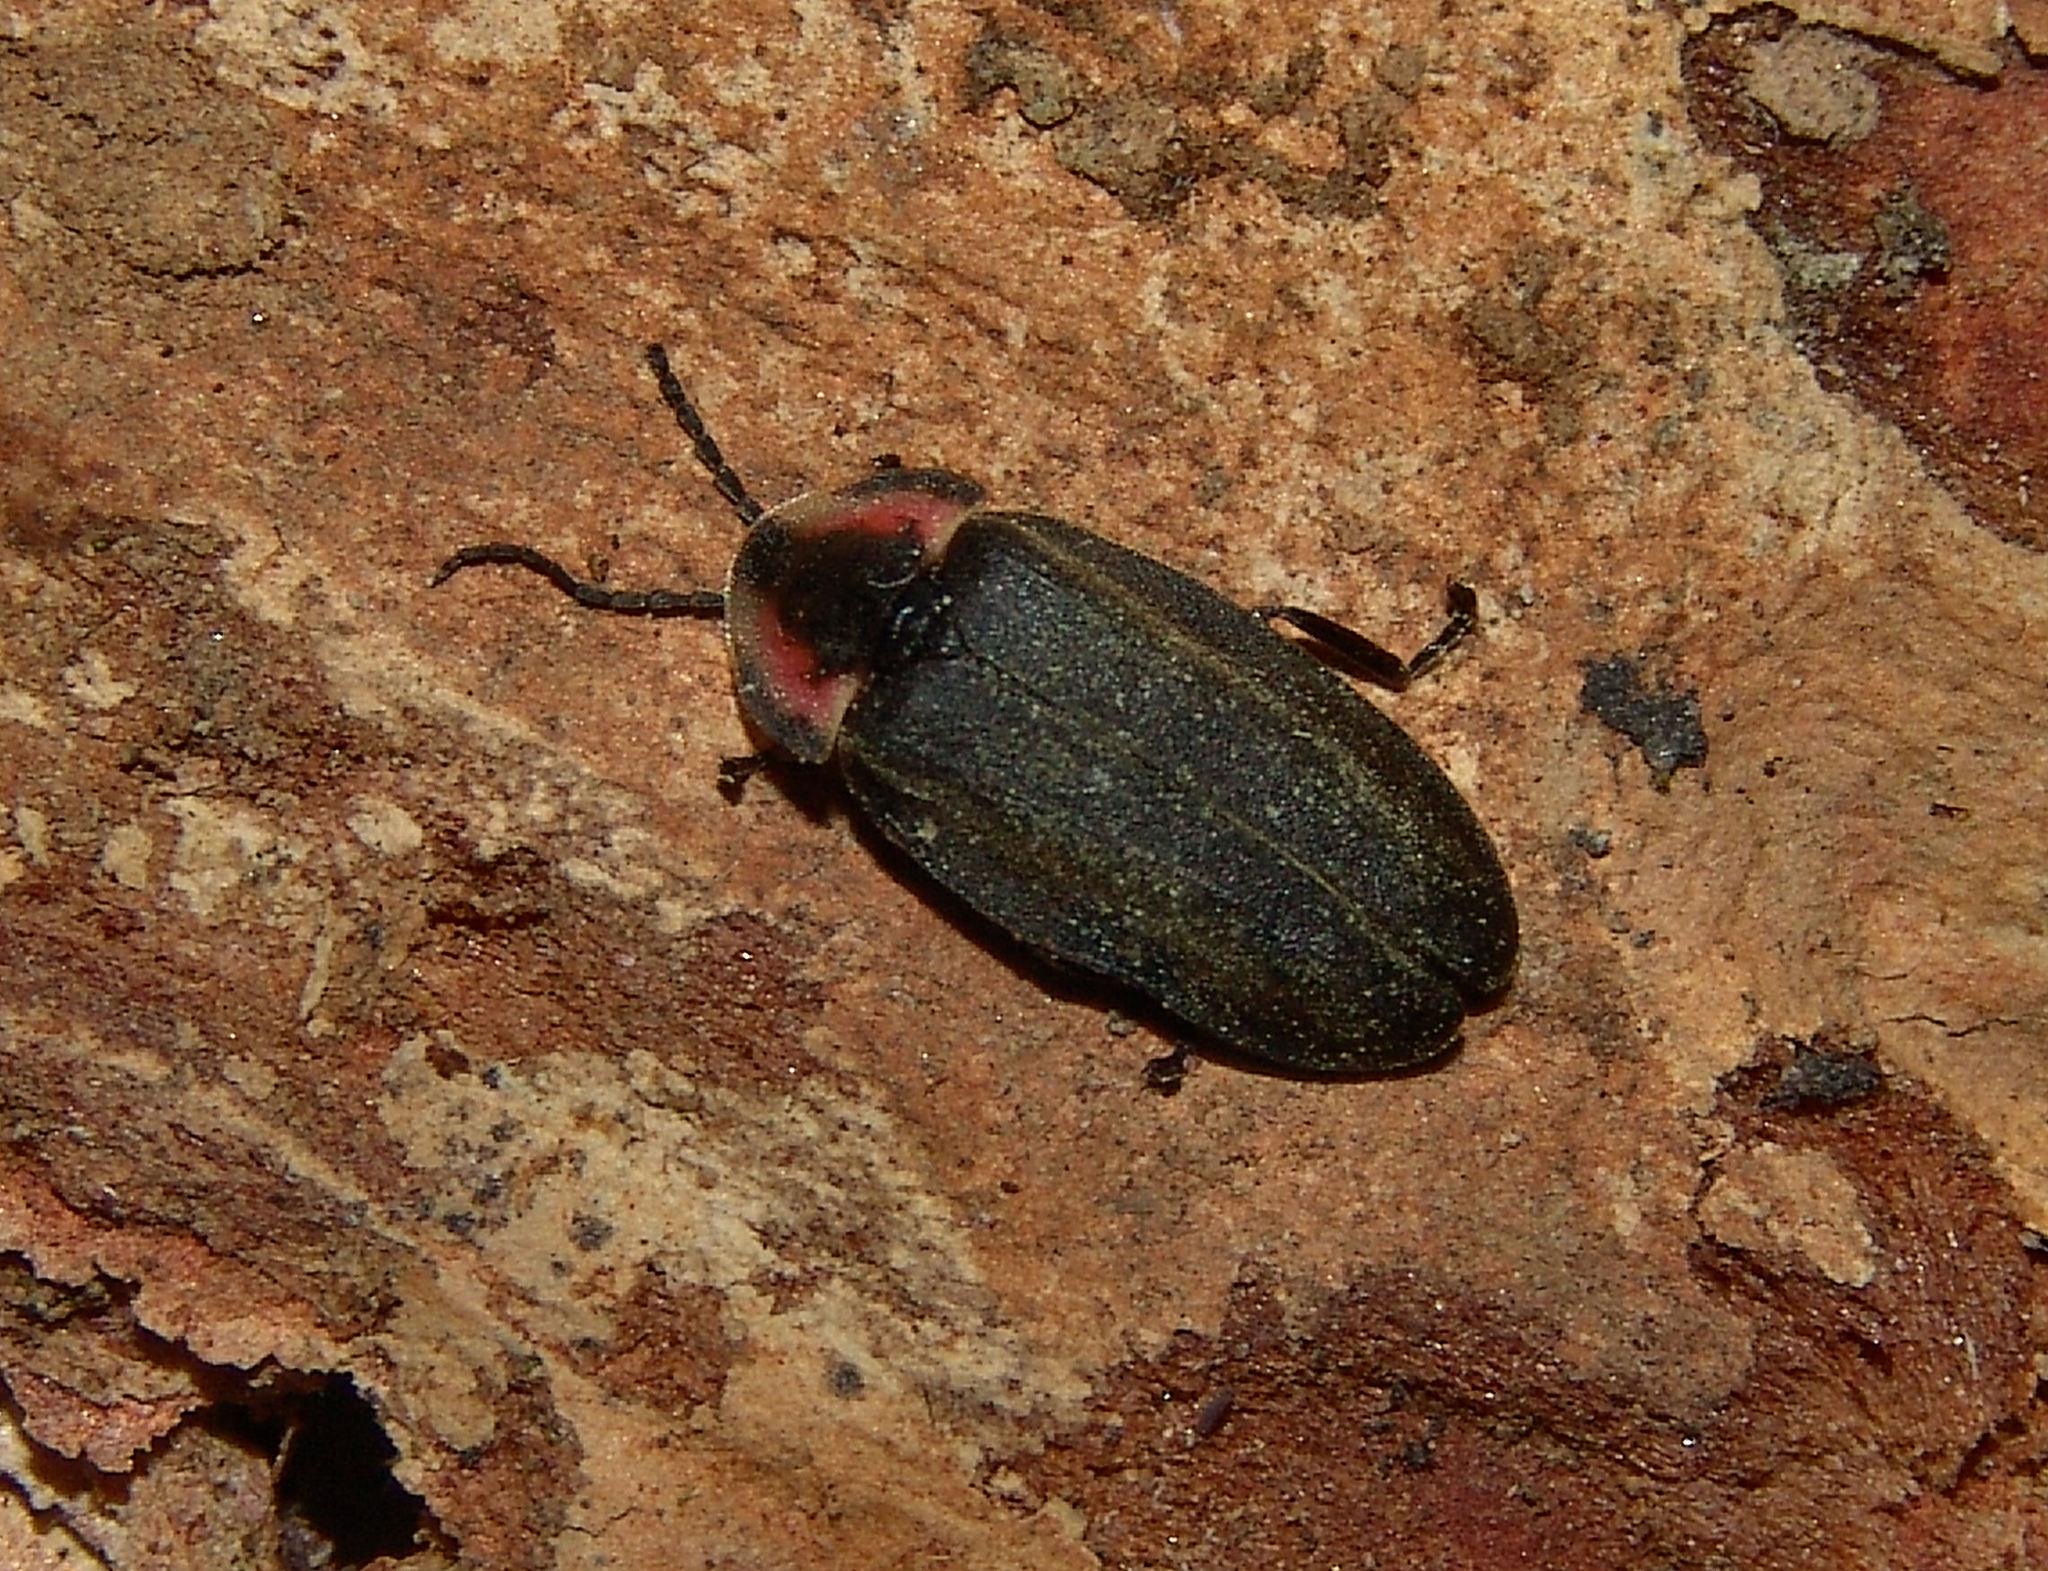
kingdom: Animalia
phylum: Arthropoda
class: Insecta
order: Coleoptera
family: Lampyridae
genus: Photinus
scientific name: Photinus corrusca
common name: Winter firefly
